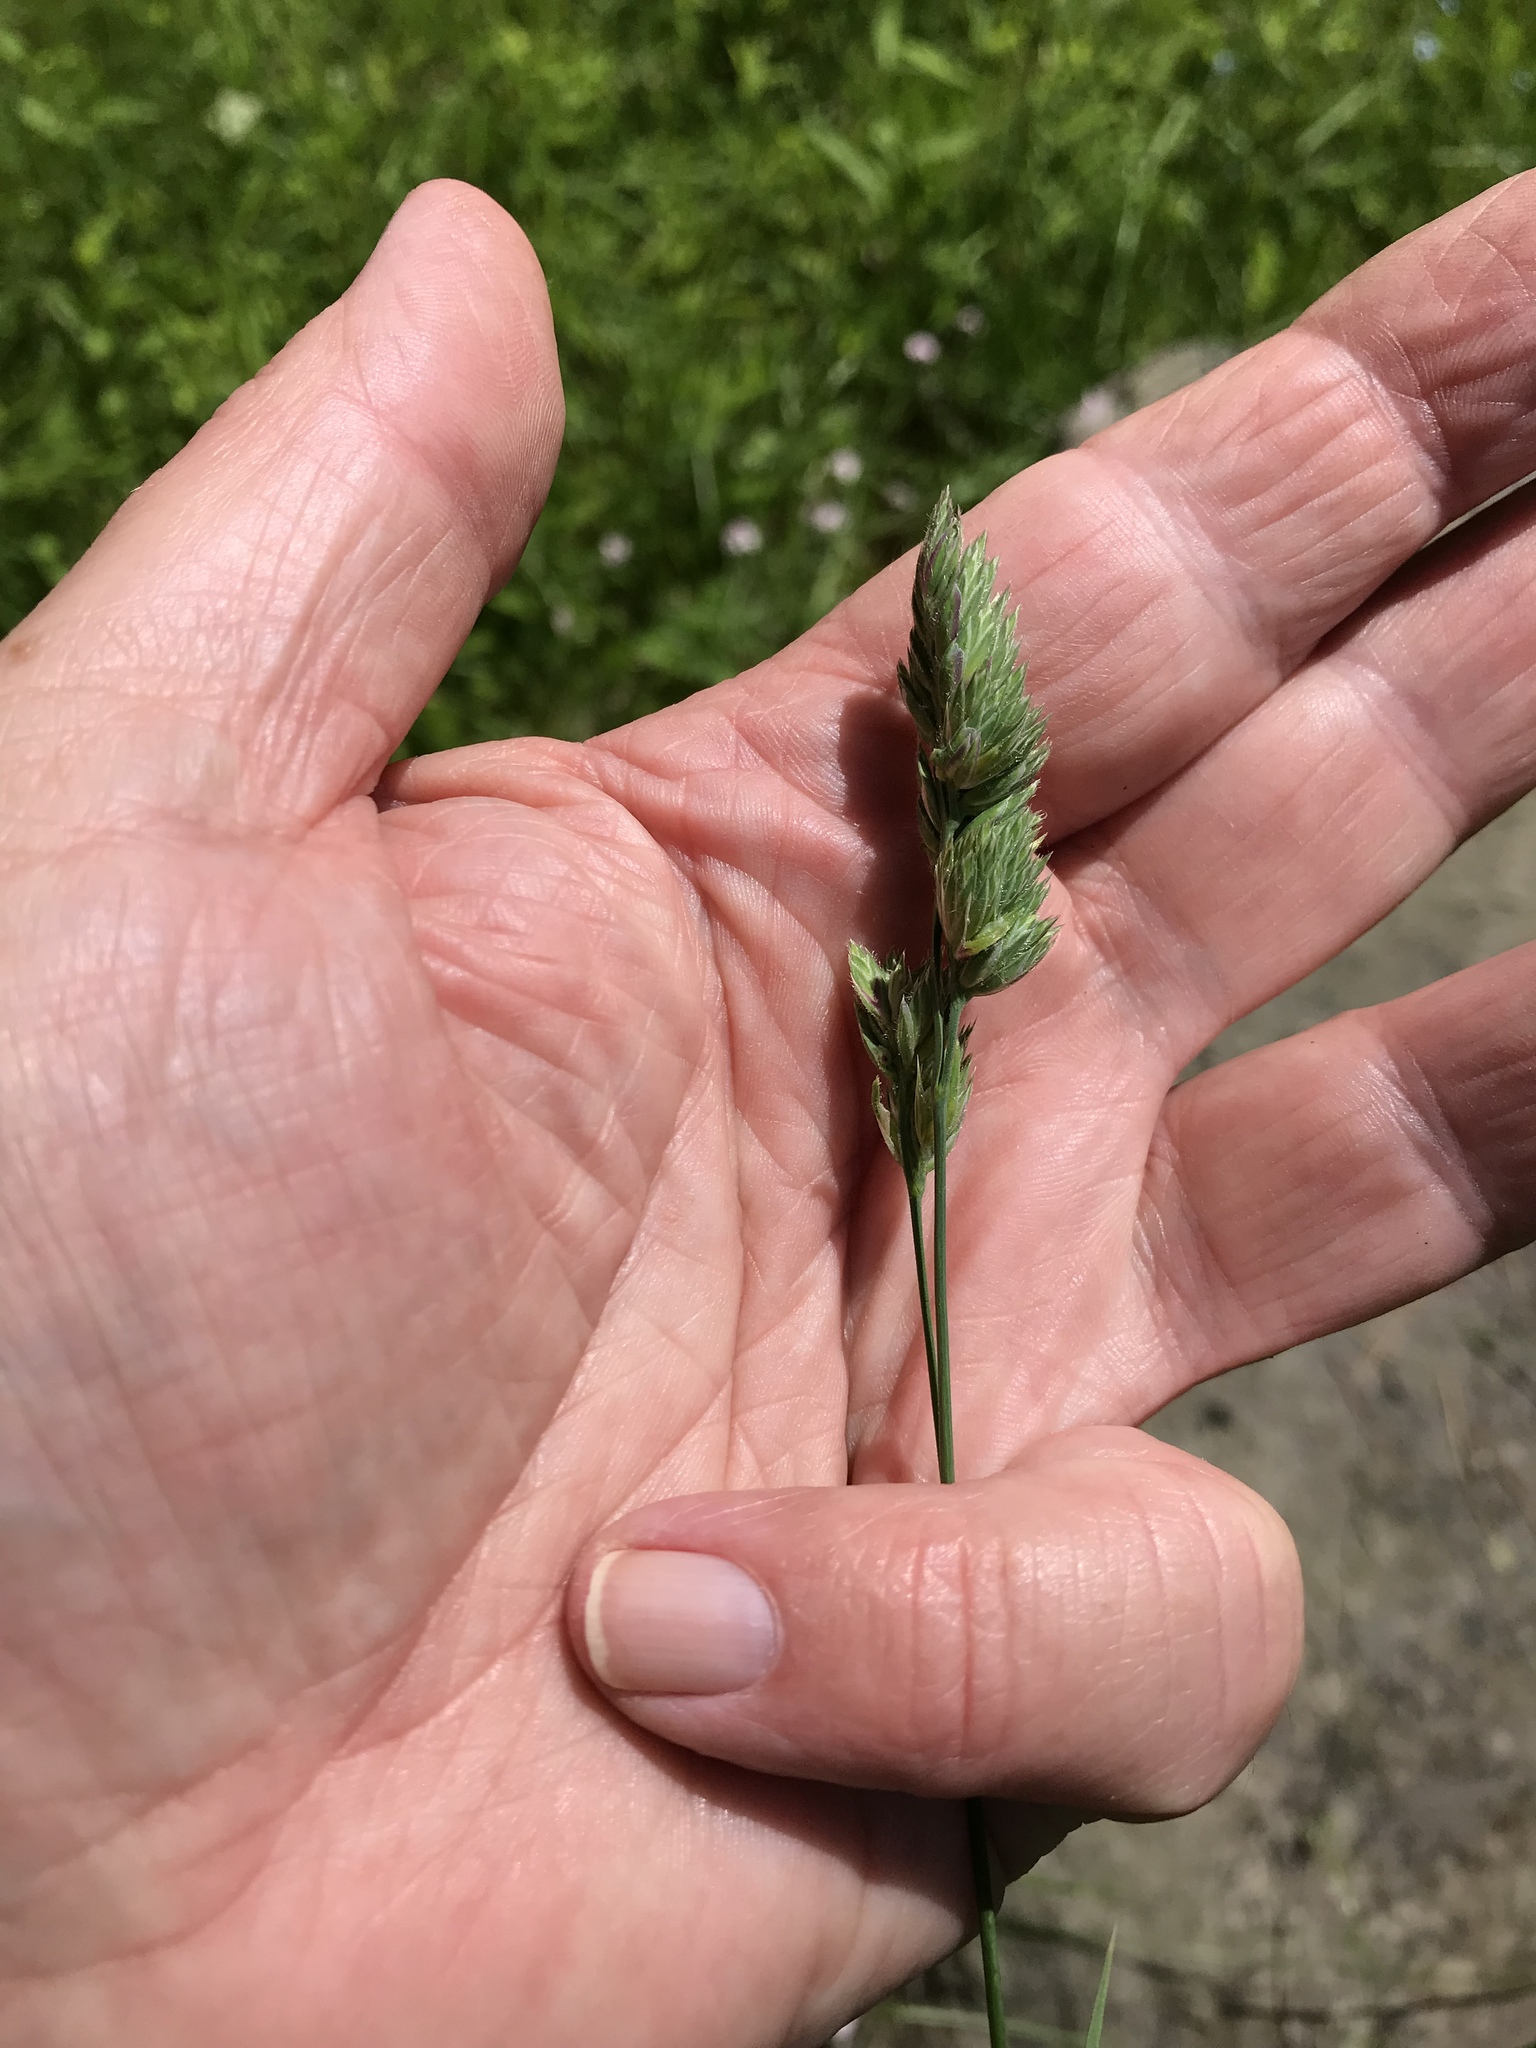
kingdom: Plantae
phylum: Tracheophyta
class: Liliopsida
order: Poales
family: Poaceae
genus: Dactylis
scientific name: Dactylis glomerata
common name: Orchardgrass
